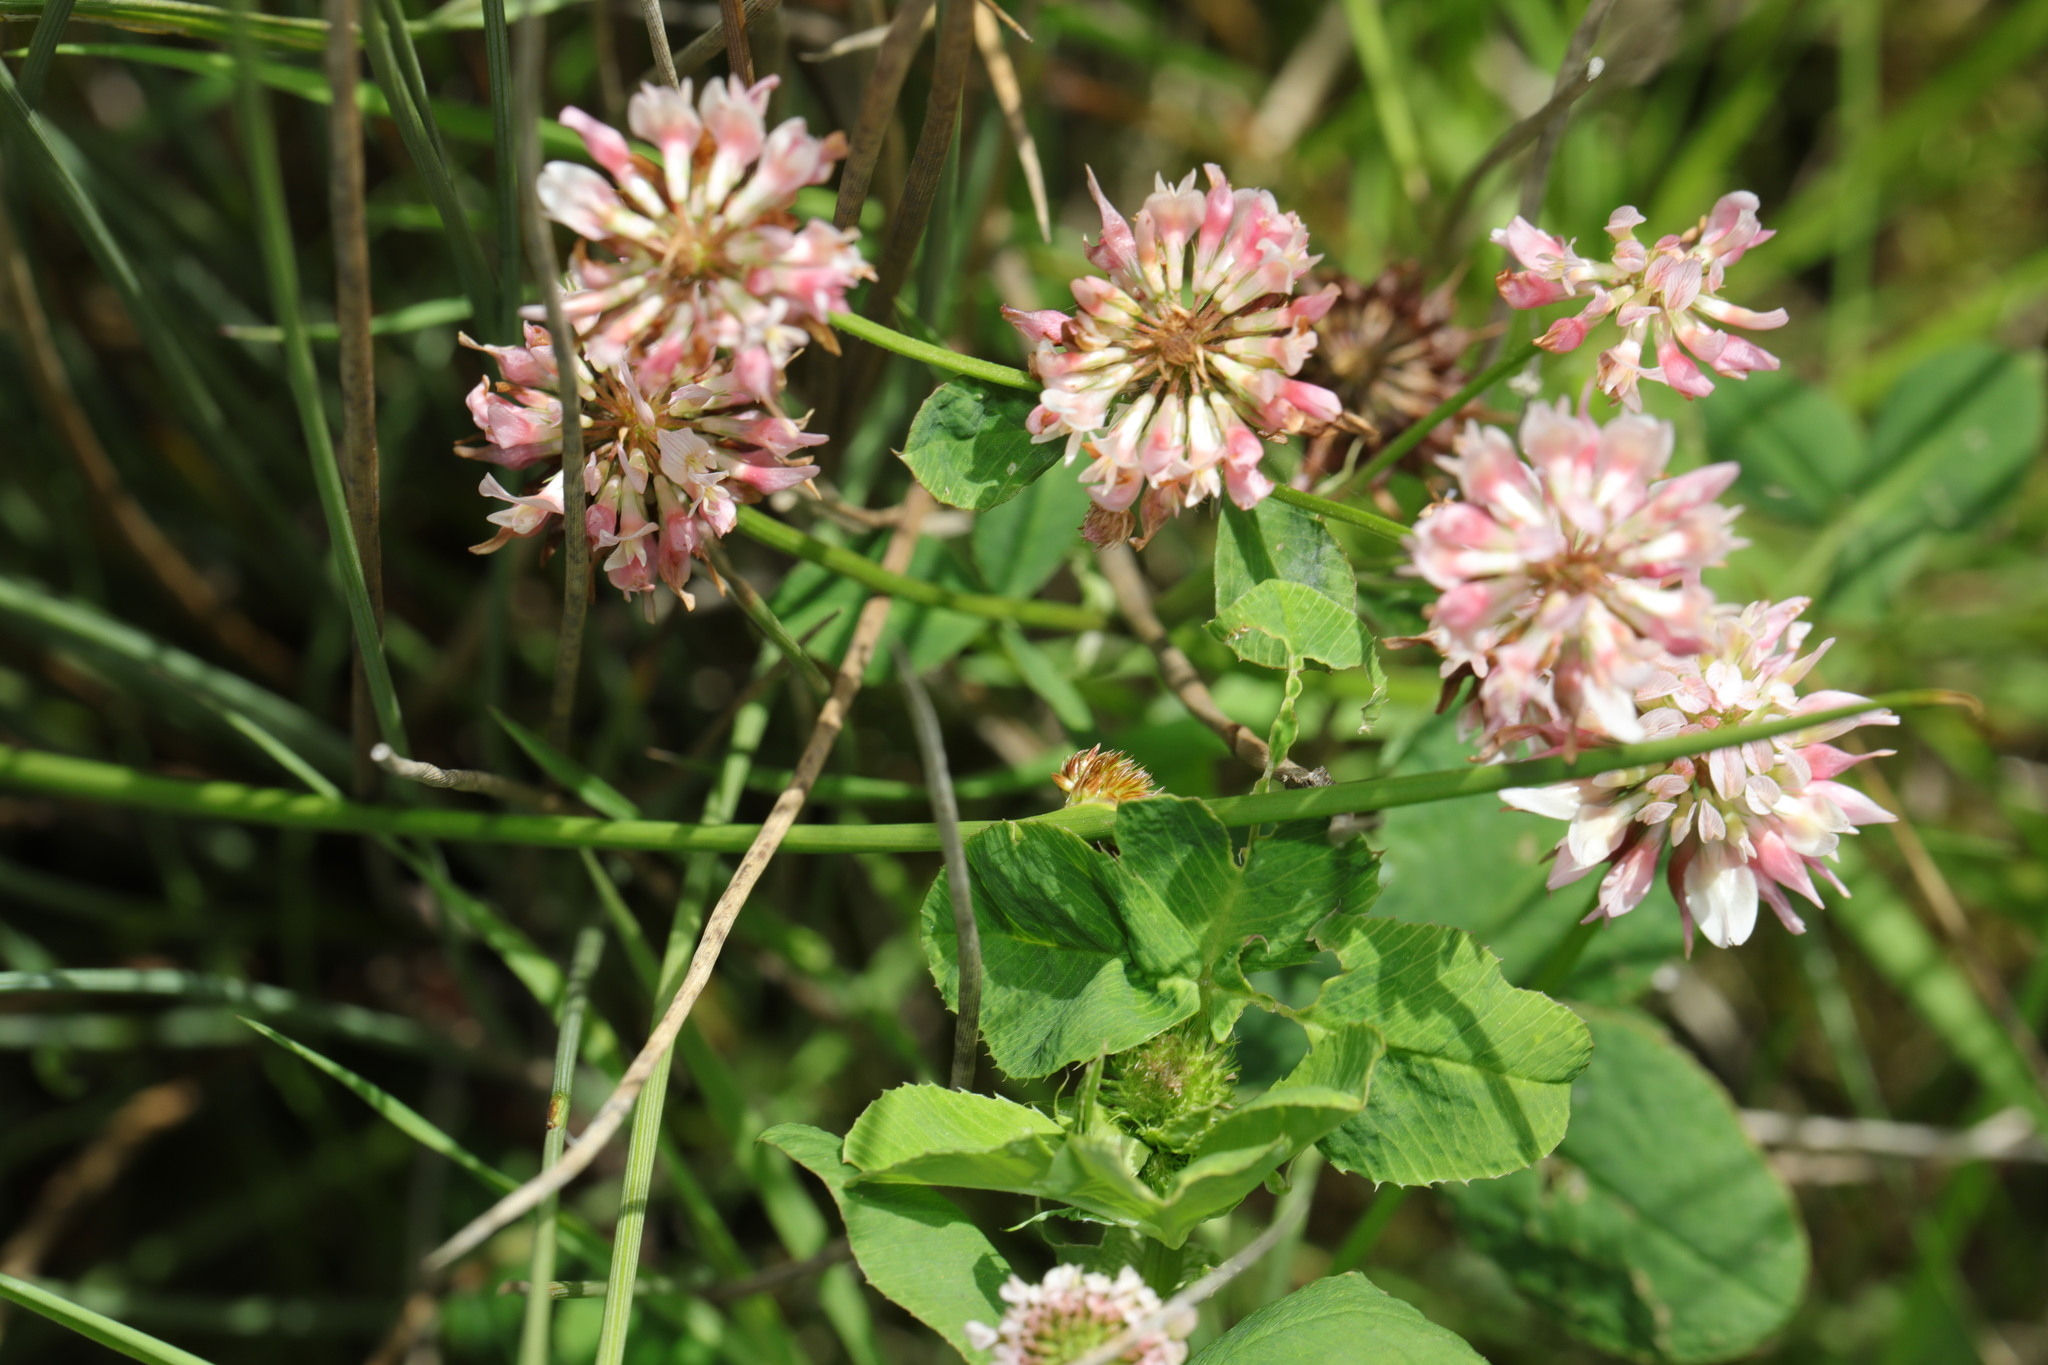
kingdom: Plantae
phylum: Tracheophyta
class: Magnoliopsida
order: Fabales
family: Fabaceae
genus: Trifolium
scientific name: Trifolium hybridum
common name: Alsike clover
